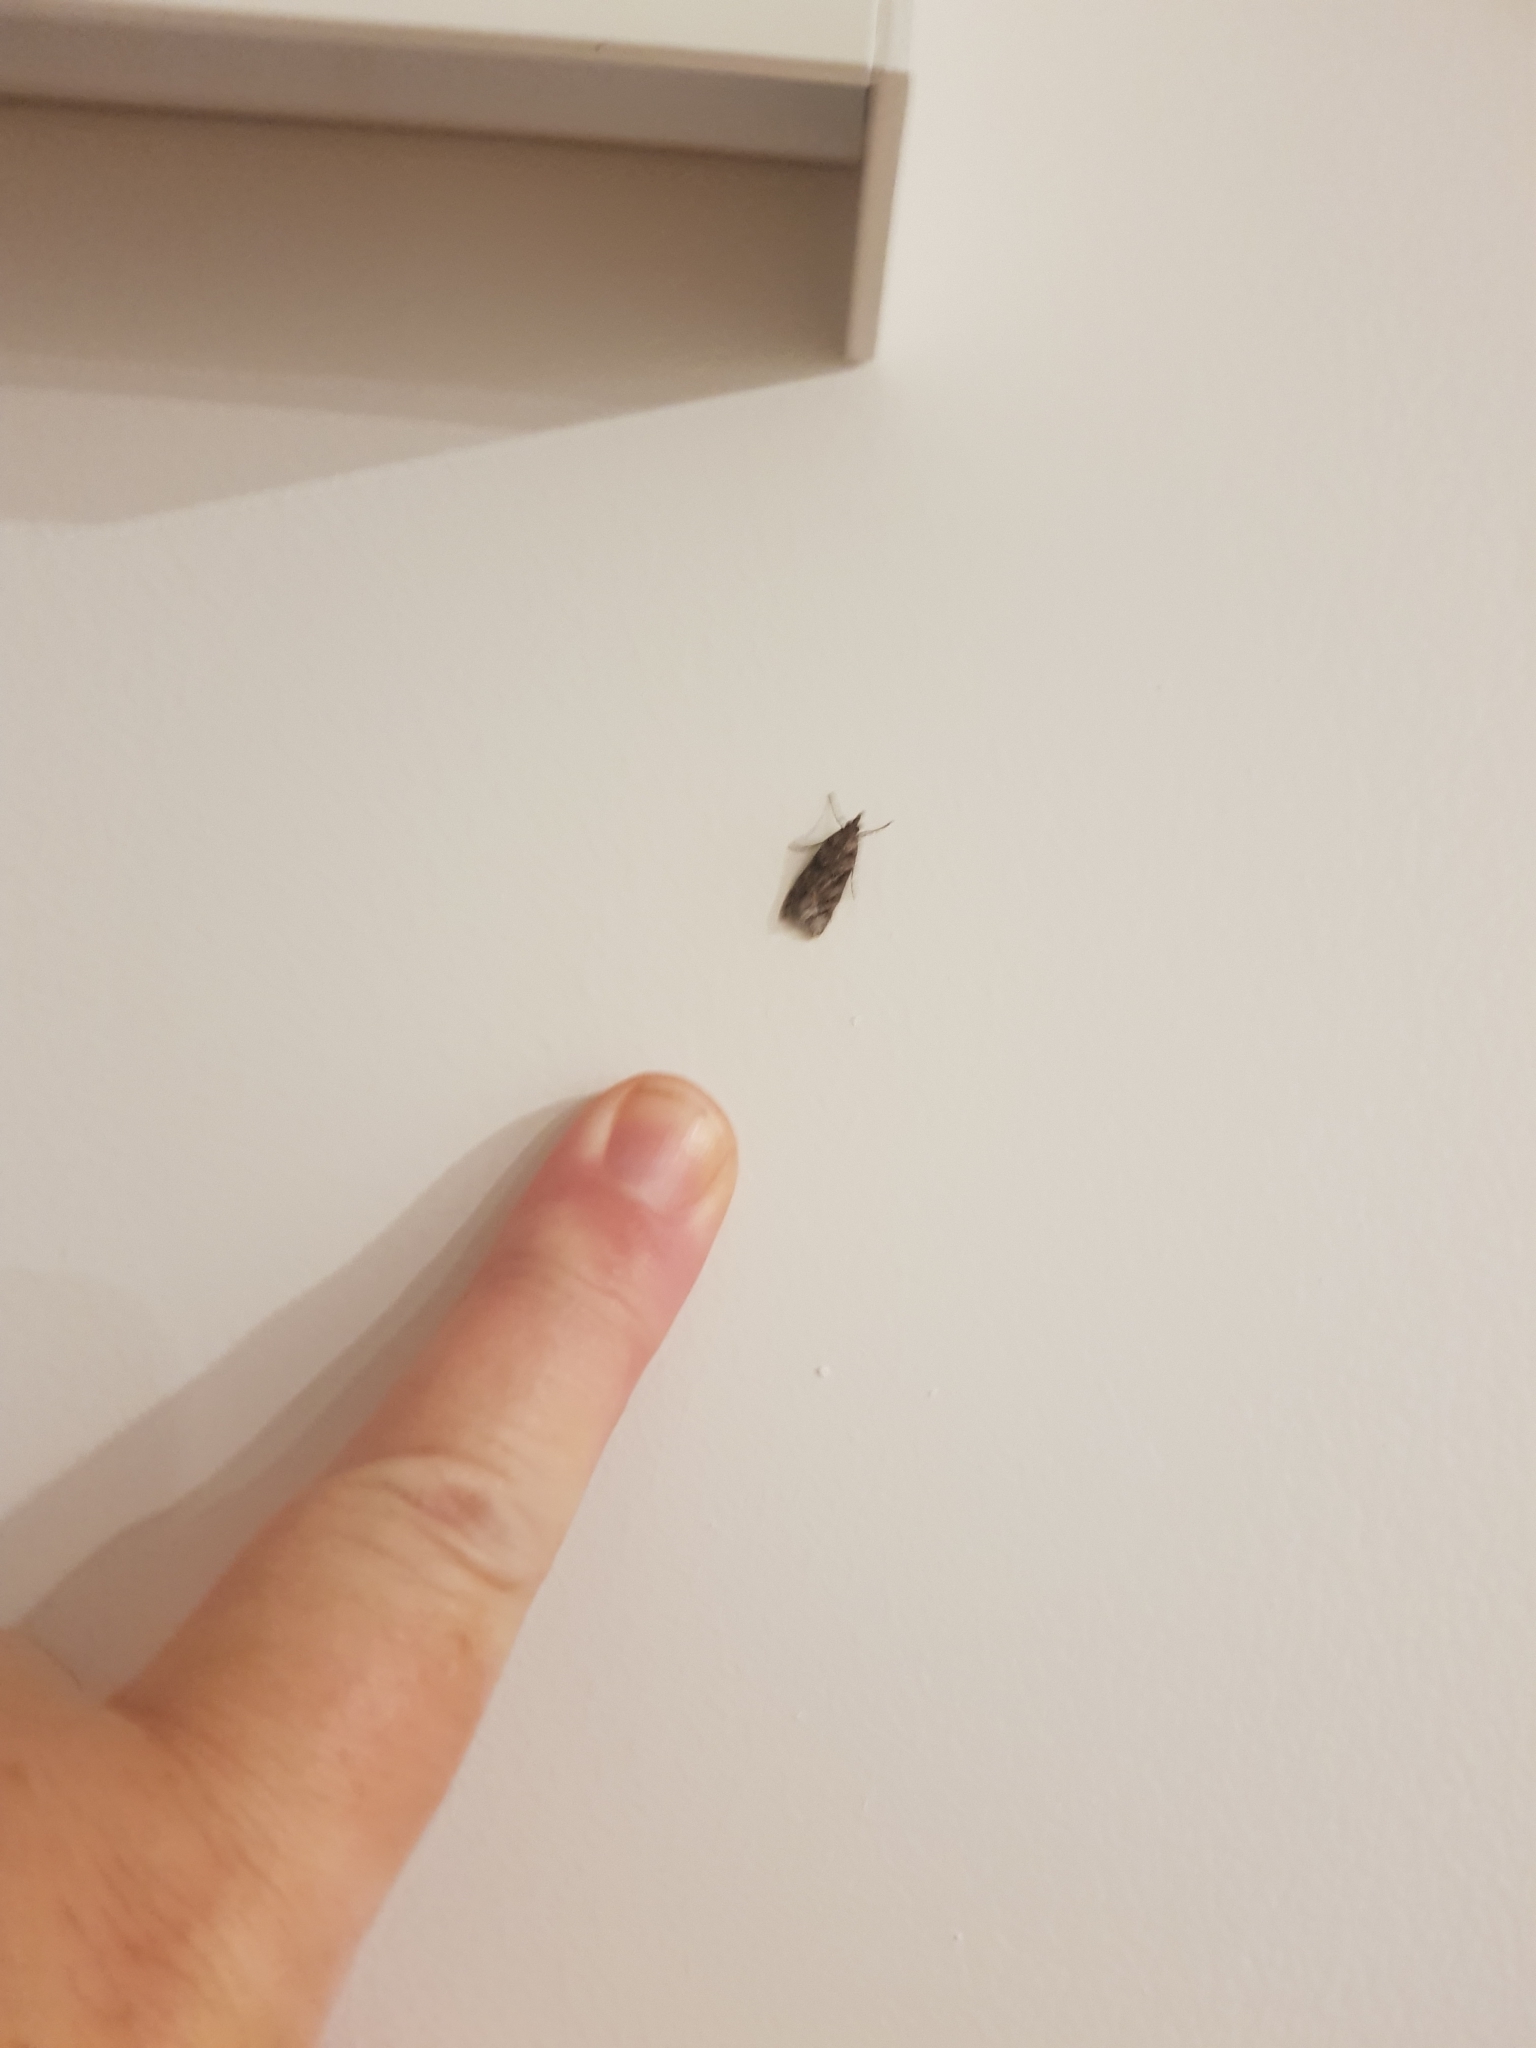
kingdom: Animalia
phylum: Arthropoda
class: Insecta
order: Lepidoptera
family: Crambidae
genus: Eudonia
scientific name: Eudonia submarginalis
